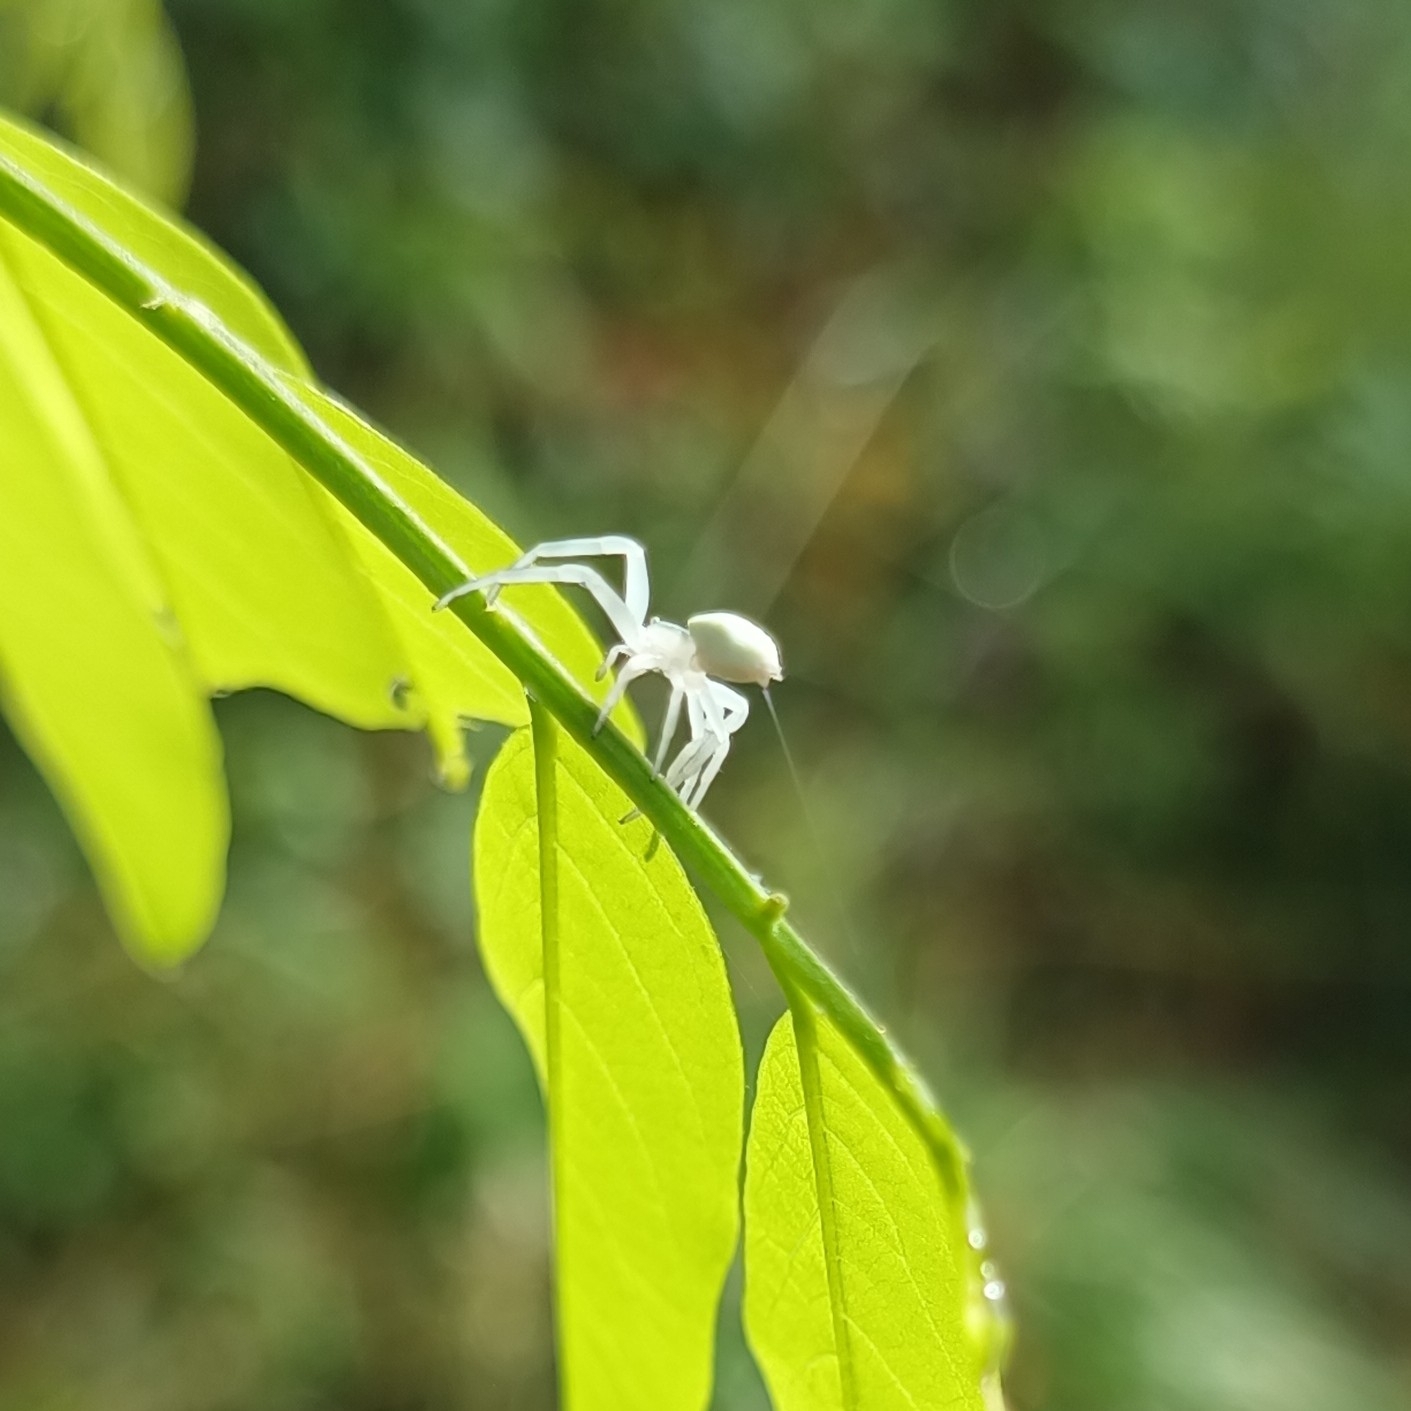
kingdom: Animalia
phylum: Arthropoda
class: Arachnida
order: Araneae
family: Thomisidae
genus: Misumena
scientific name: Misumena vatia
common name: Goldenrod crab spider
